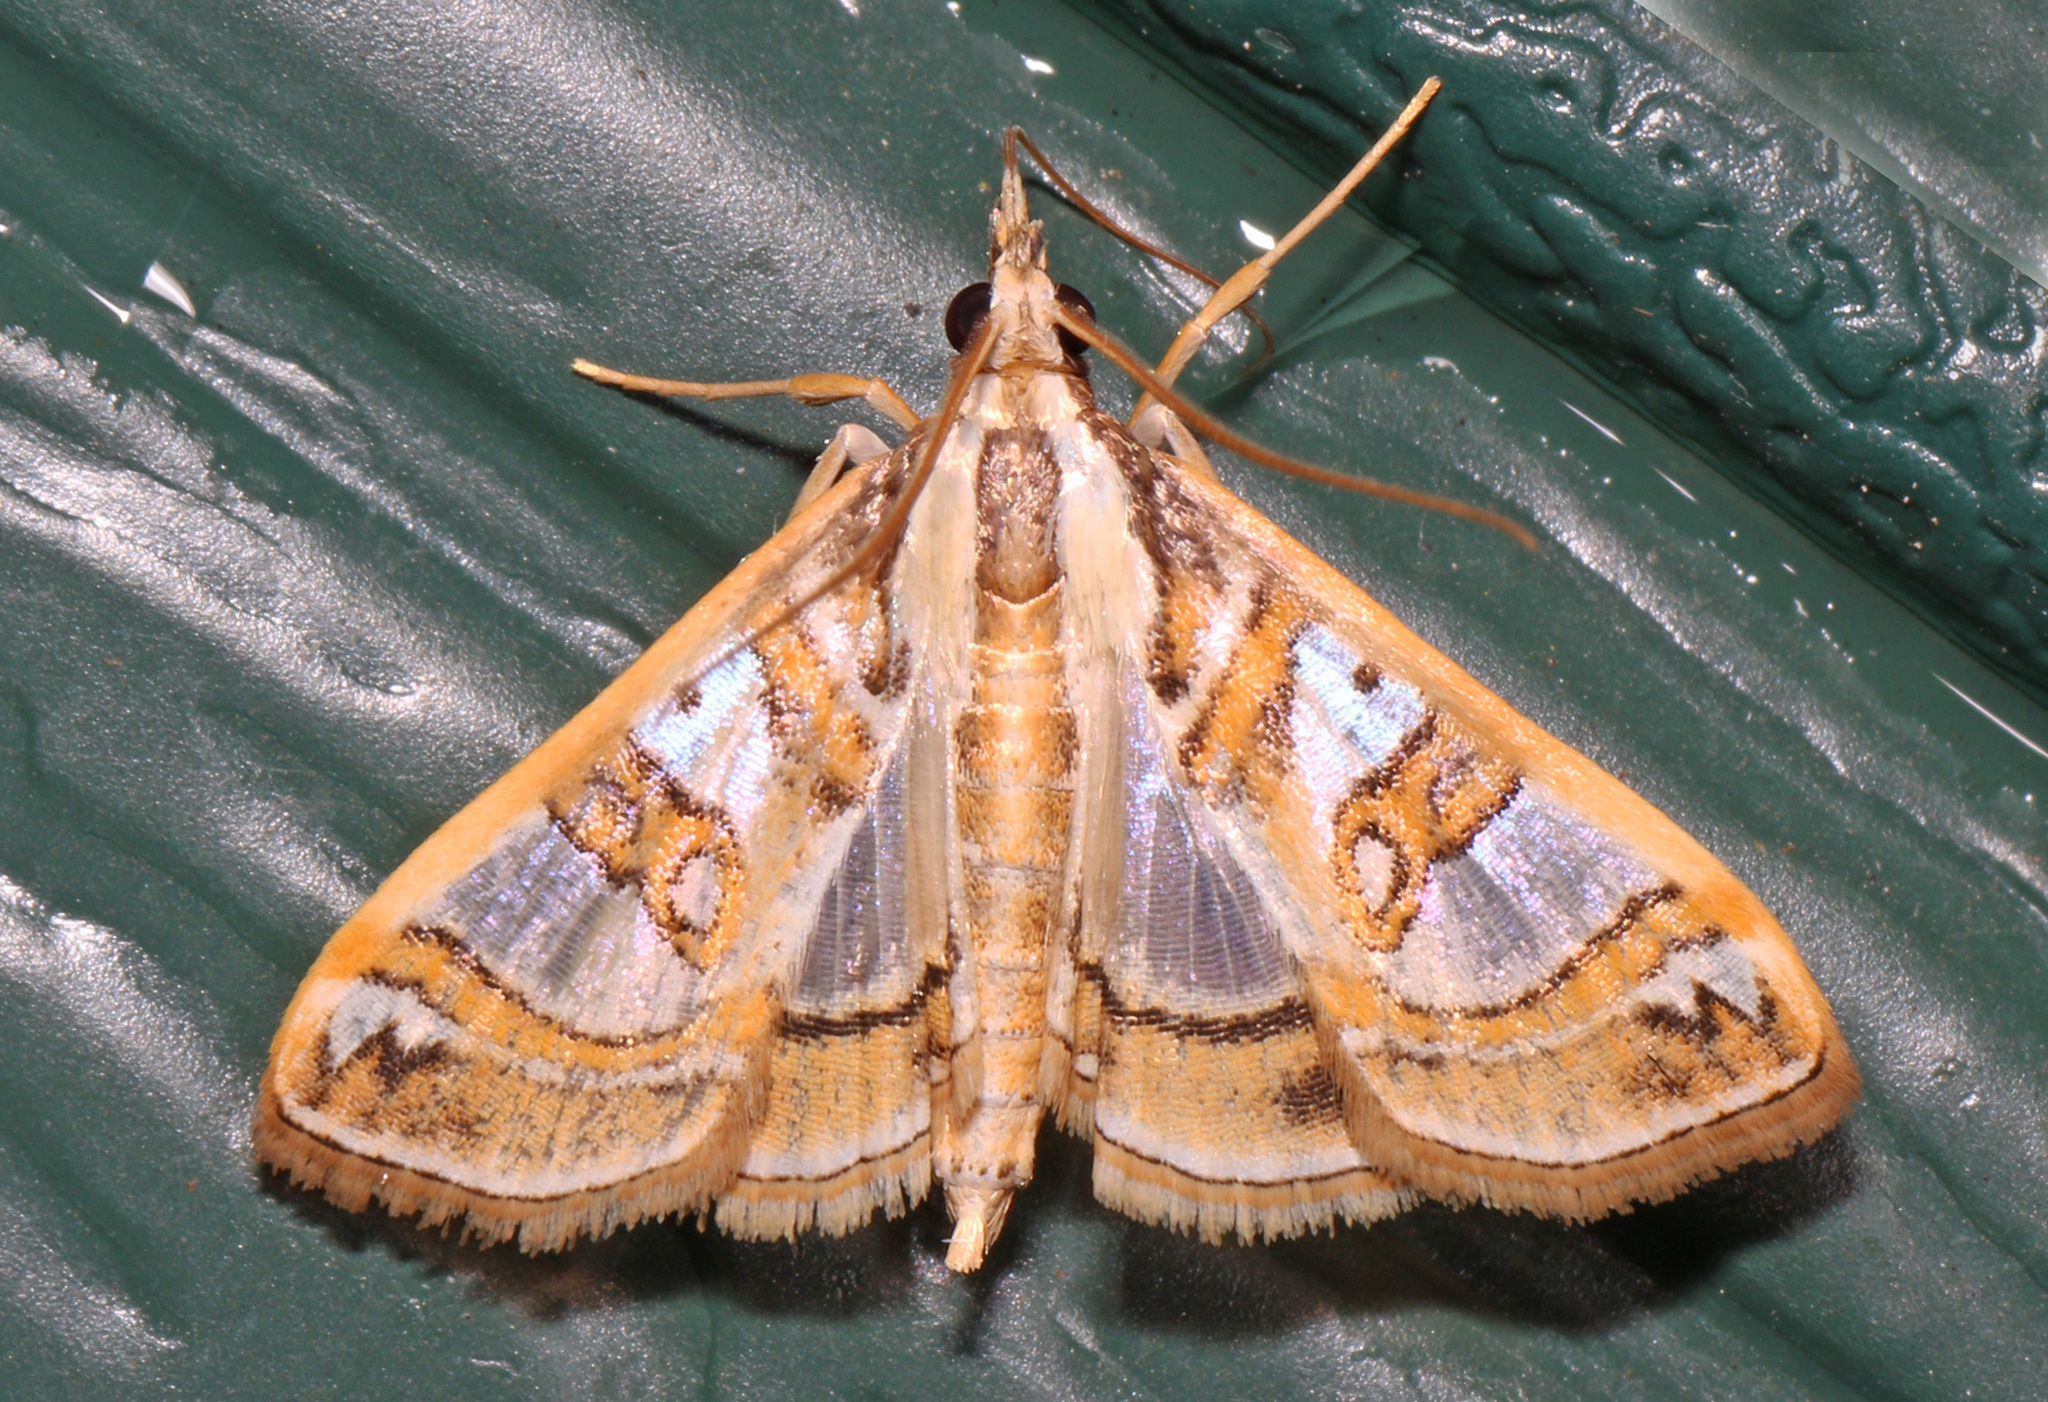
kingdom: Animalia
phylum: Arthropoda
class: Insecta
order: Lepidoptera
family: Crambidae
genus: Glyphodes
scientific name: Glyphodes pyloalis
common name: Lesser mulberry snout moth
